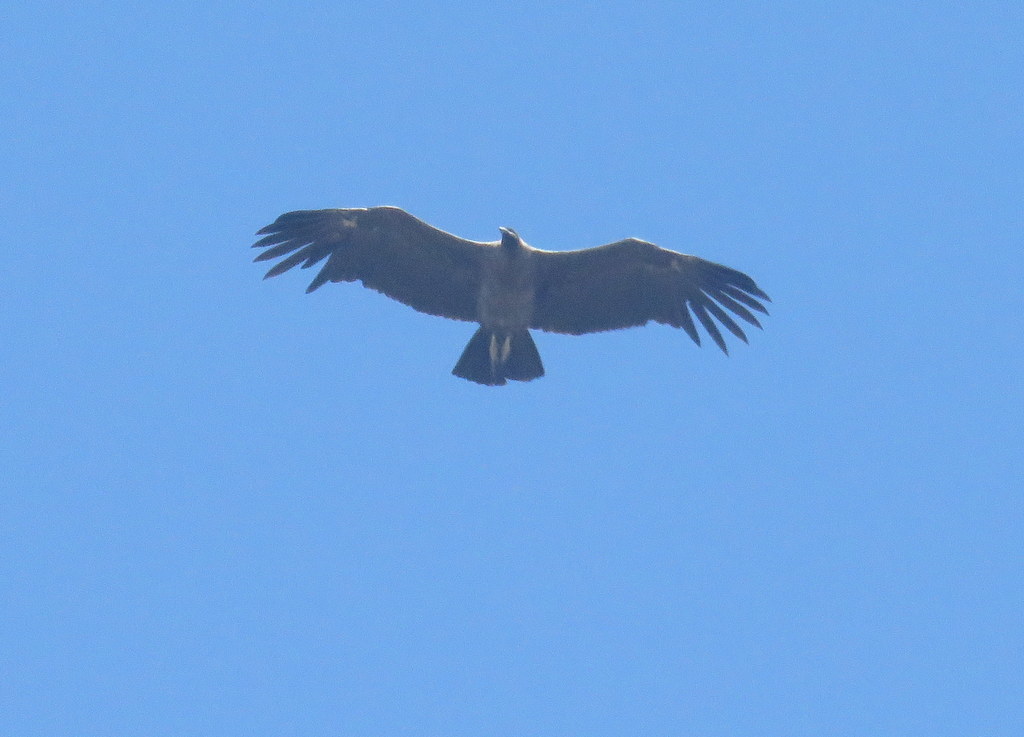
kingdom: Animalia
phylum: Chordata
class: Aves
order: Accipitriformes
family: Cathartidae
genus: Vultur
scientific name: Vultur gryphus
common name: Andean condor
